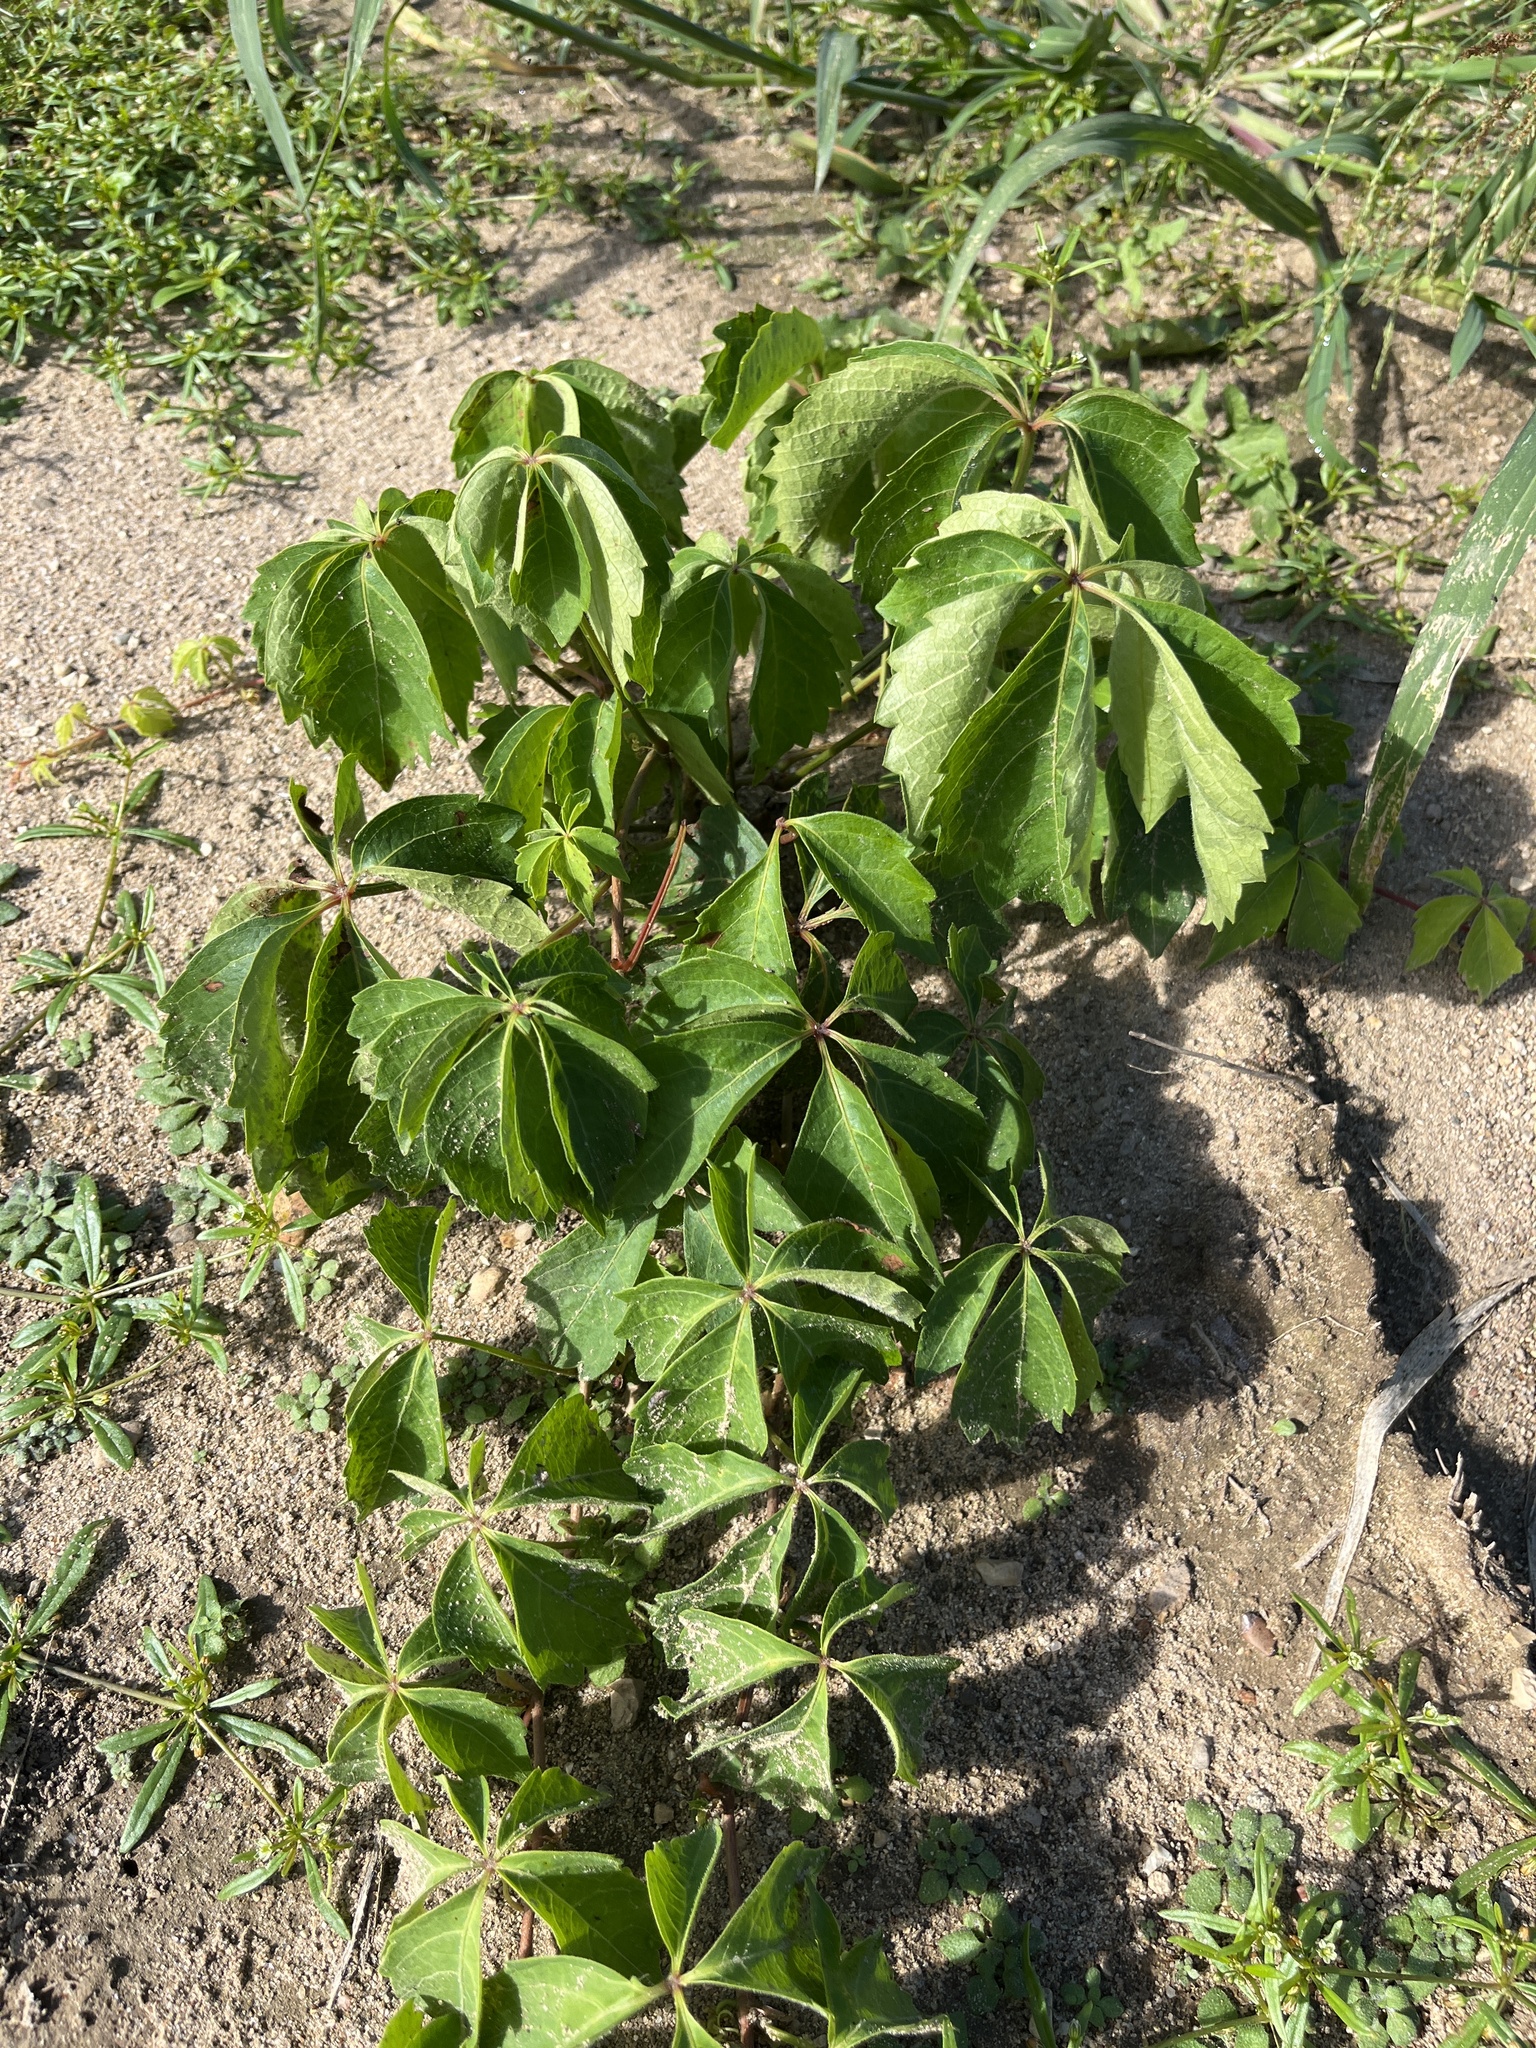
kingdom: Plantae
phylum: Tracheophyta
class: Magnoliopsida
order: Vitales
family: Vitaceae
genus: Parthenocissus
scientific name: Parthenocissus quinquefolia
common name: Virginia-creeper
